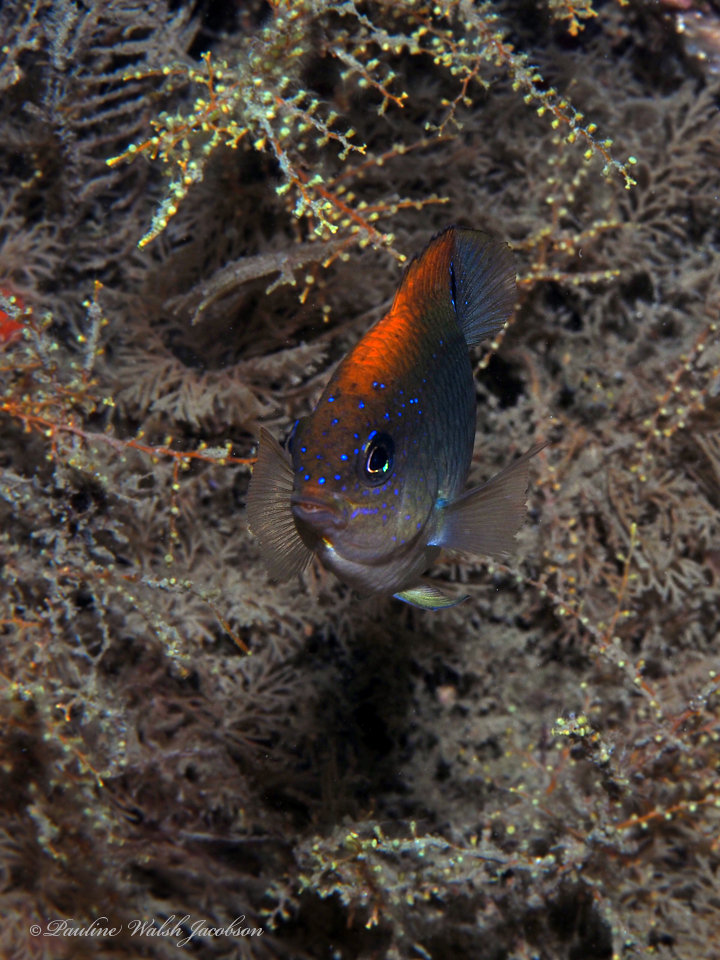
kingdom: Animalia
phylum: Chordata
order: Perciformes
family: Pomacentridae
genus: Stegastes
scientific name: Stegastes adustus
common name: Dusky damselfish
